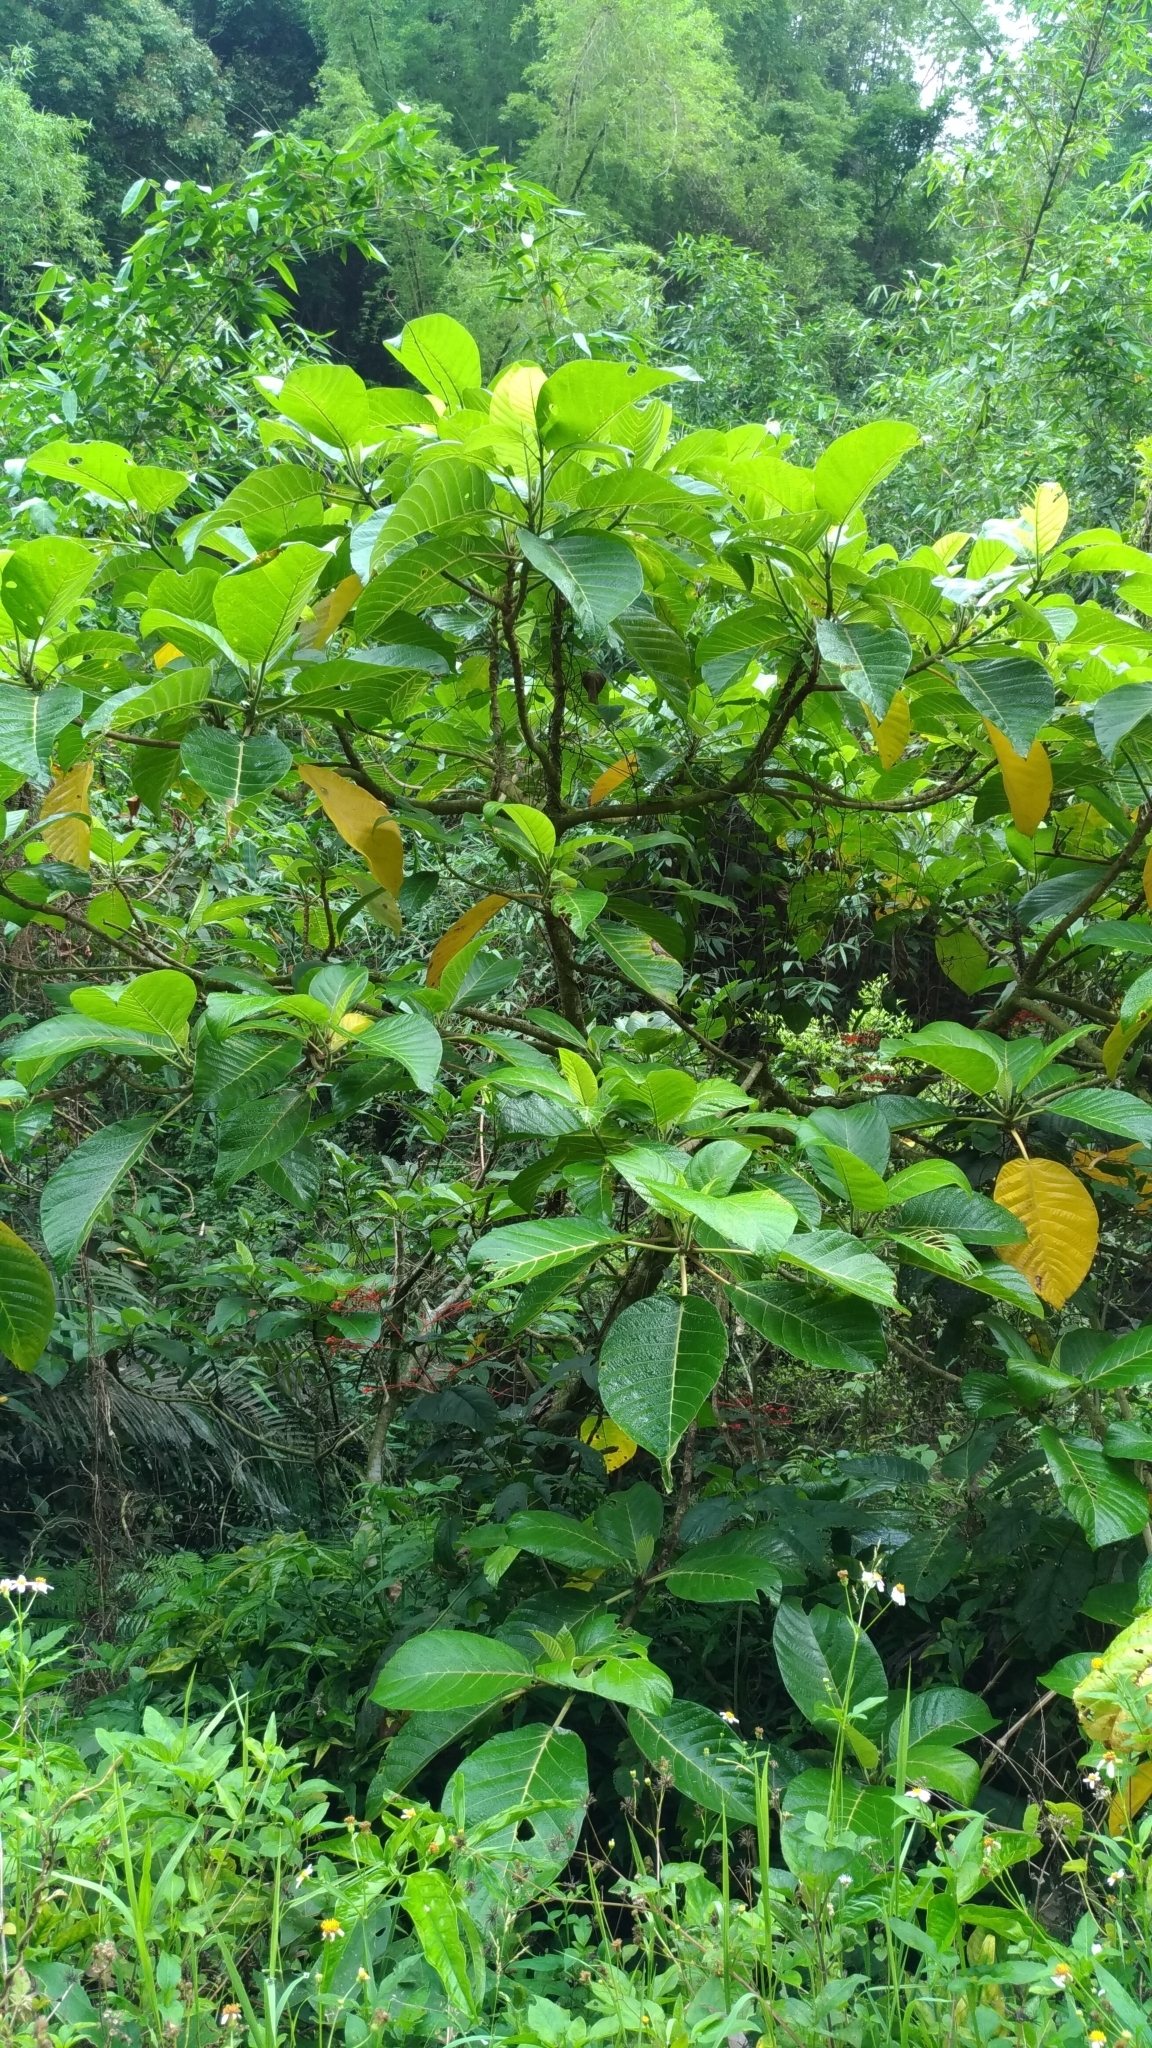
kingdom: Plantae
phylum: Tracheophyta
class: Magnoliopsida
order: Rosales
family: Urticaceae
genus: Dendrocnide
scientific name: Dendrocnide meyeniana
